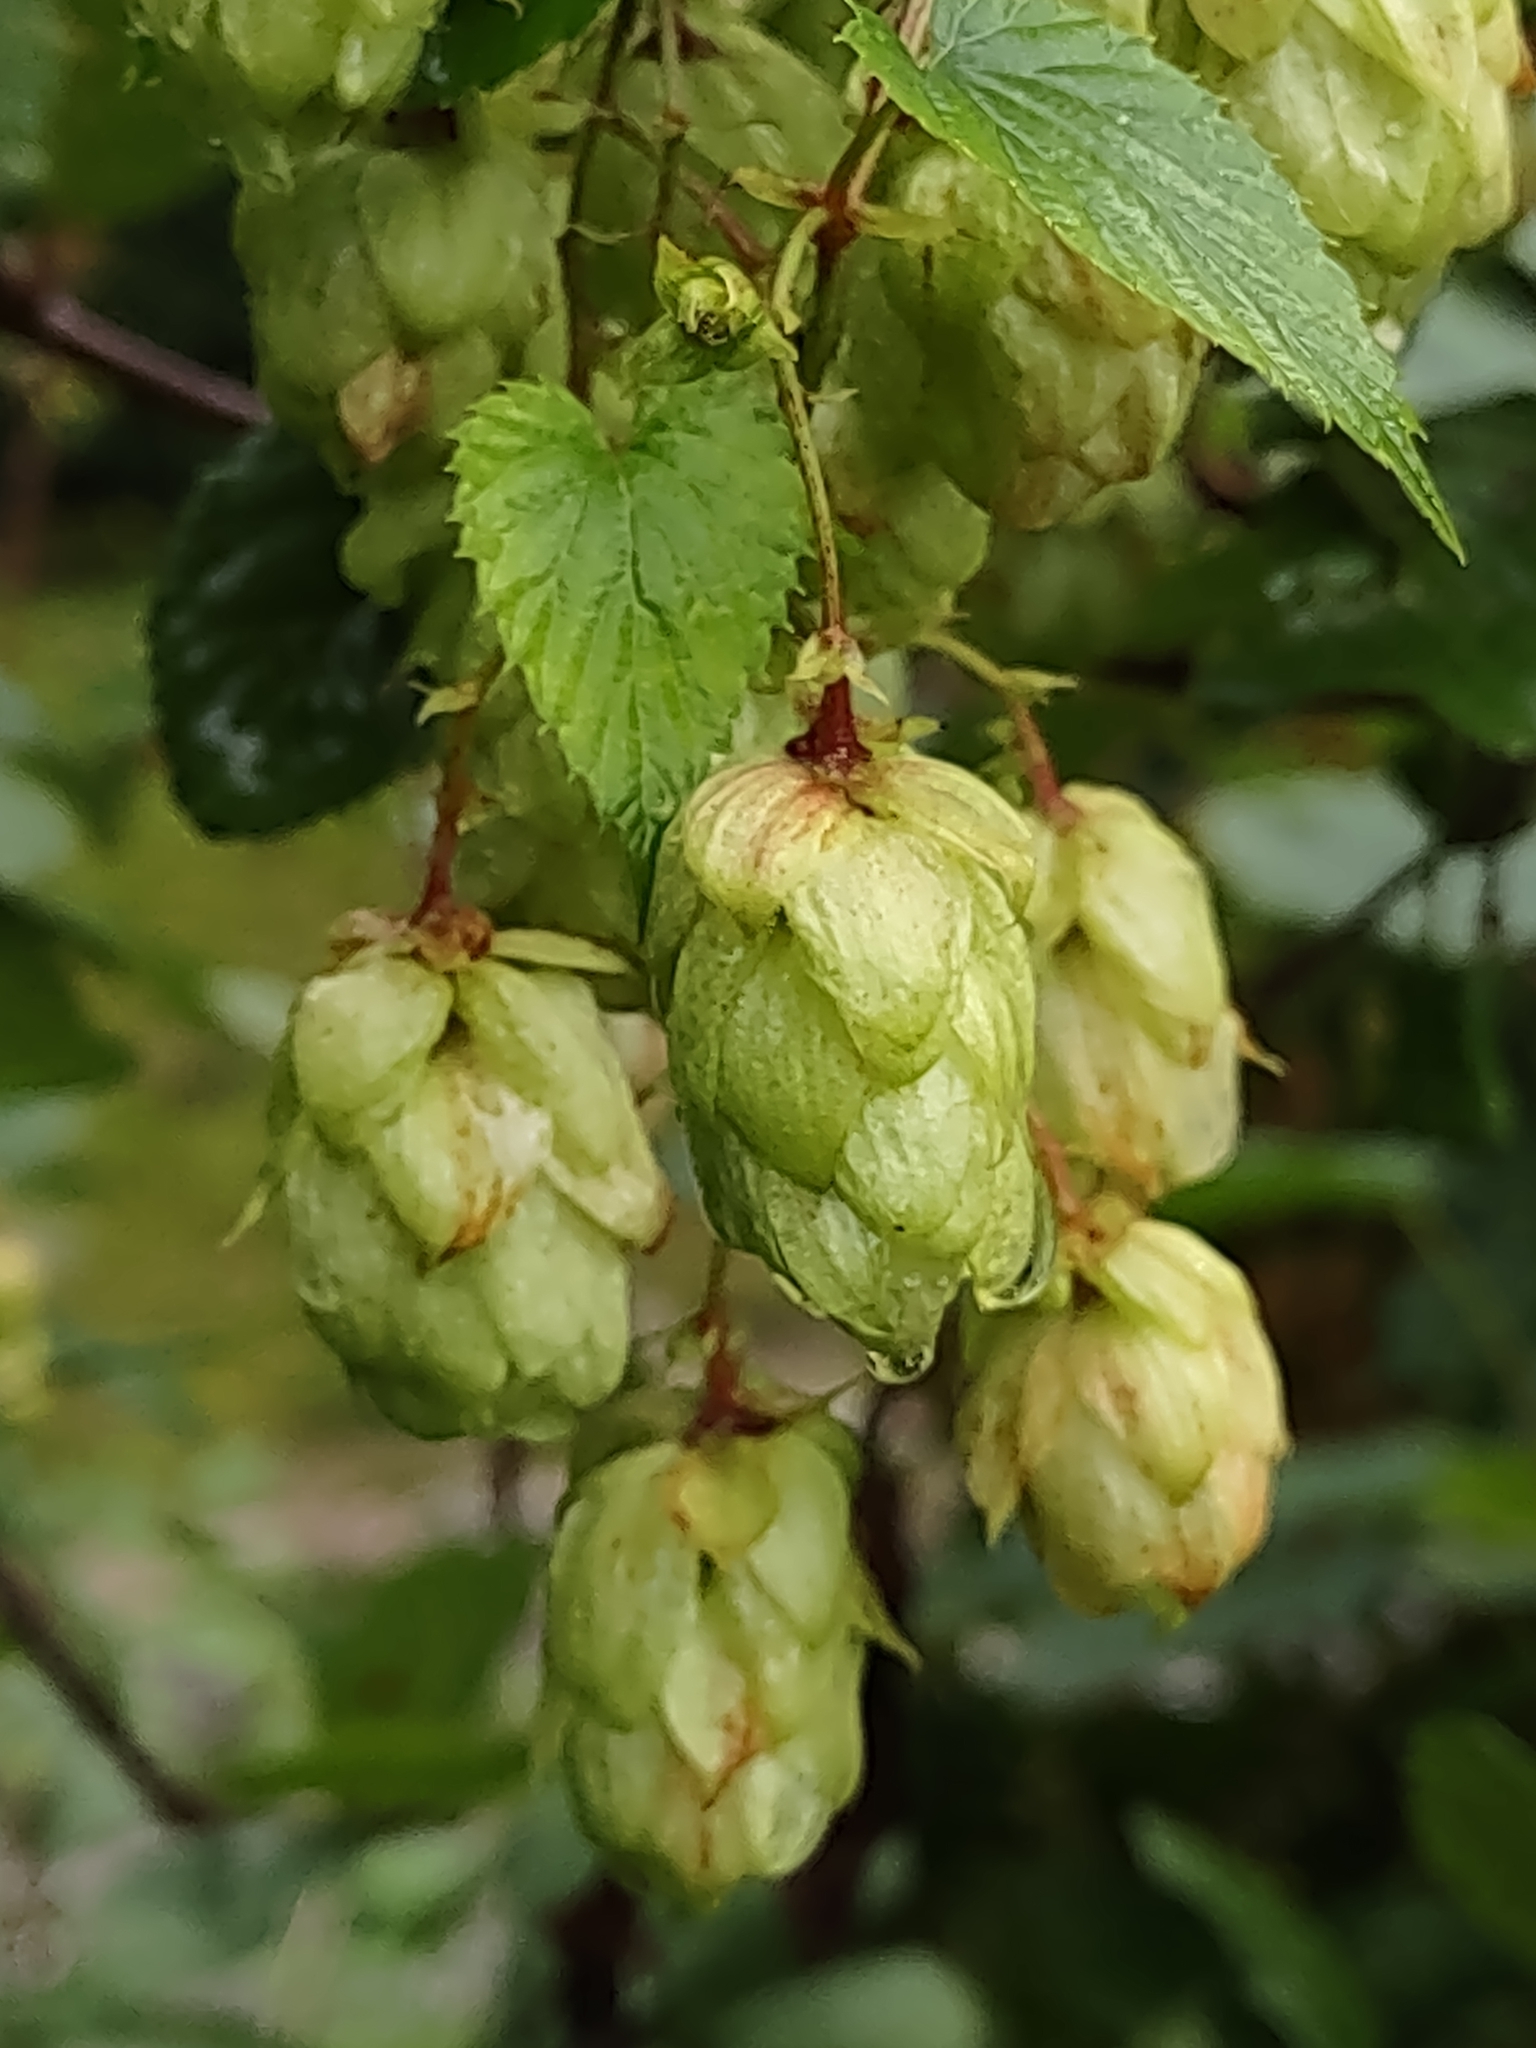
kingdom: Plantae
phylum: Tracheophyta
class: Magnoliopsida
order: Rosales
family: Cannabaceae
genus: Humulus
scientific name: Humulus lupulus
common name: Hop
